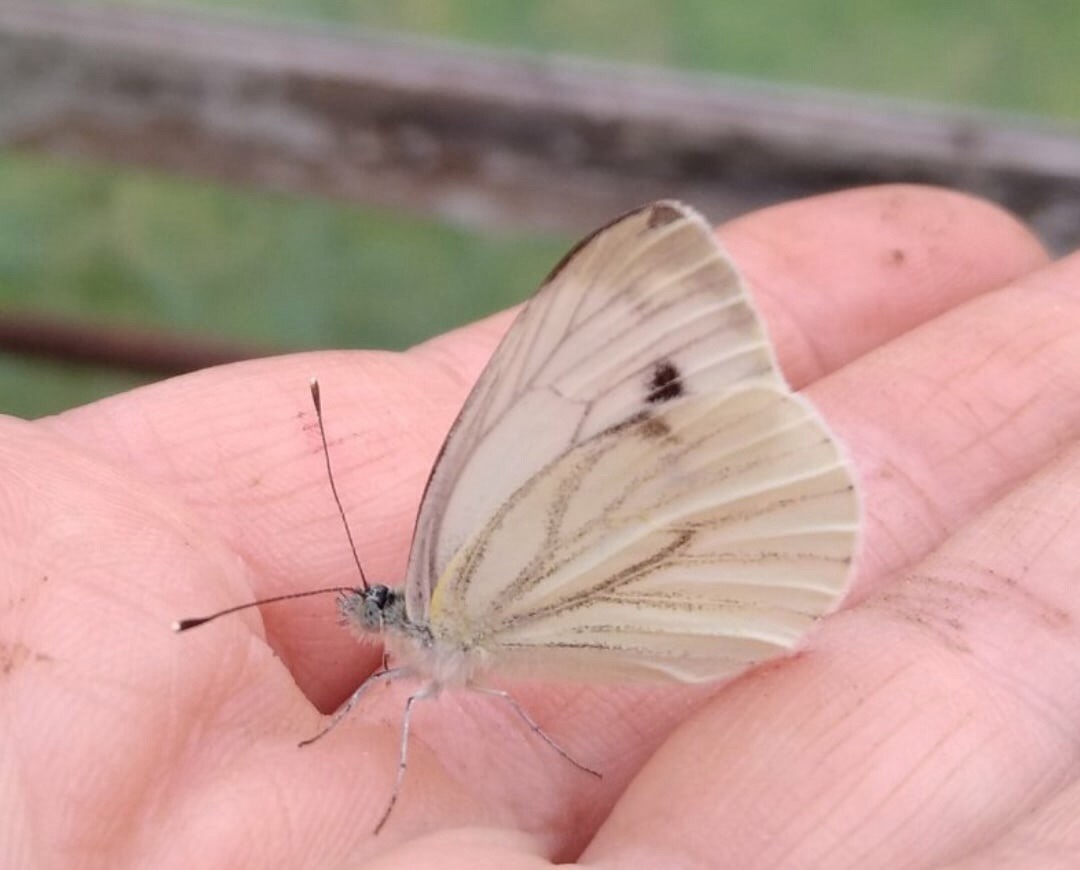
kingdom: Animalia
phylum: Arthropoda
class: Insecta
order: Lepidoptera
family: Pieridae
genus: Pieris
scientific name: Pieris napi
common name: Green-veined white
